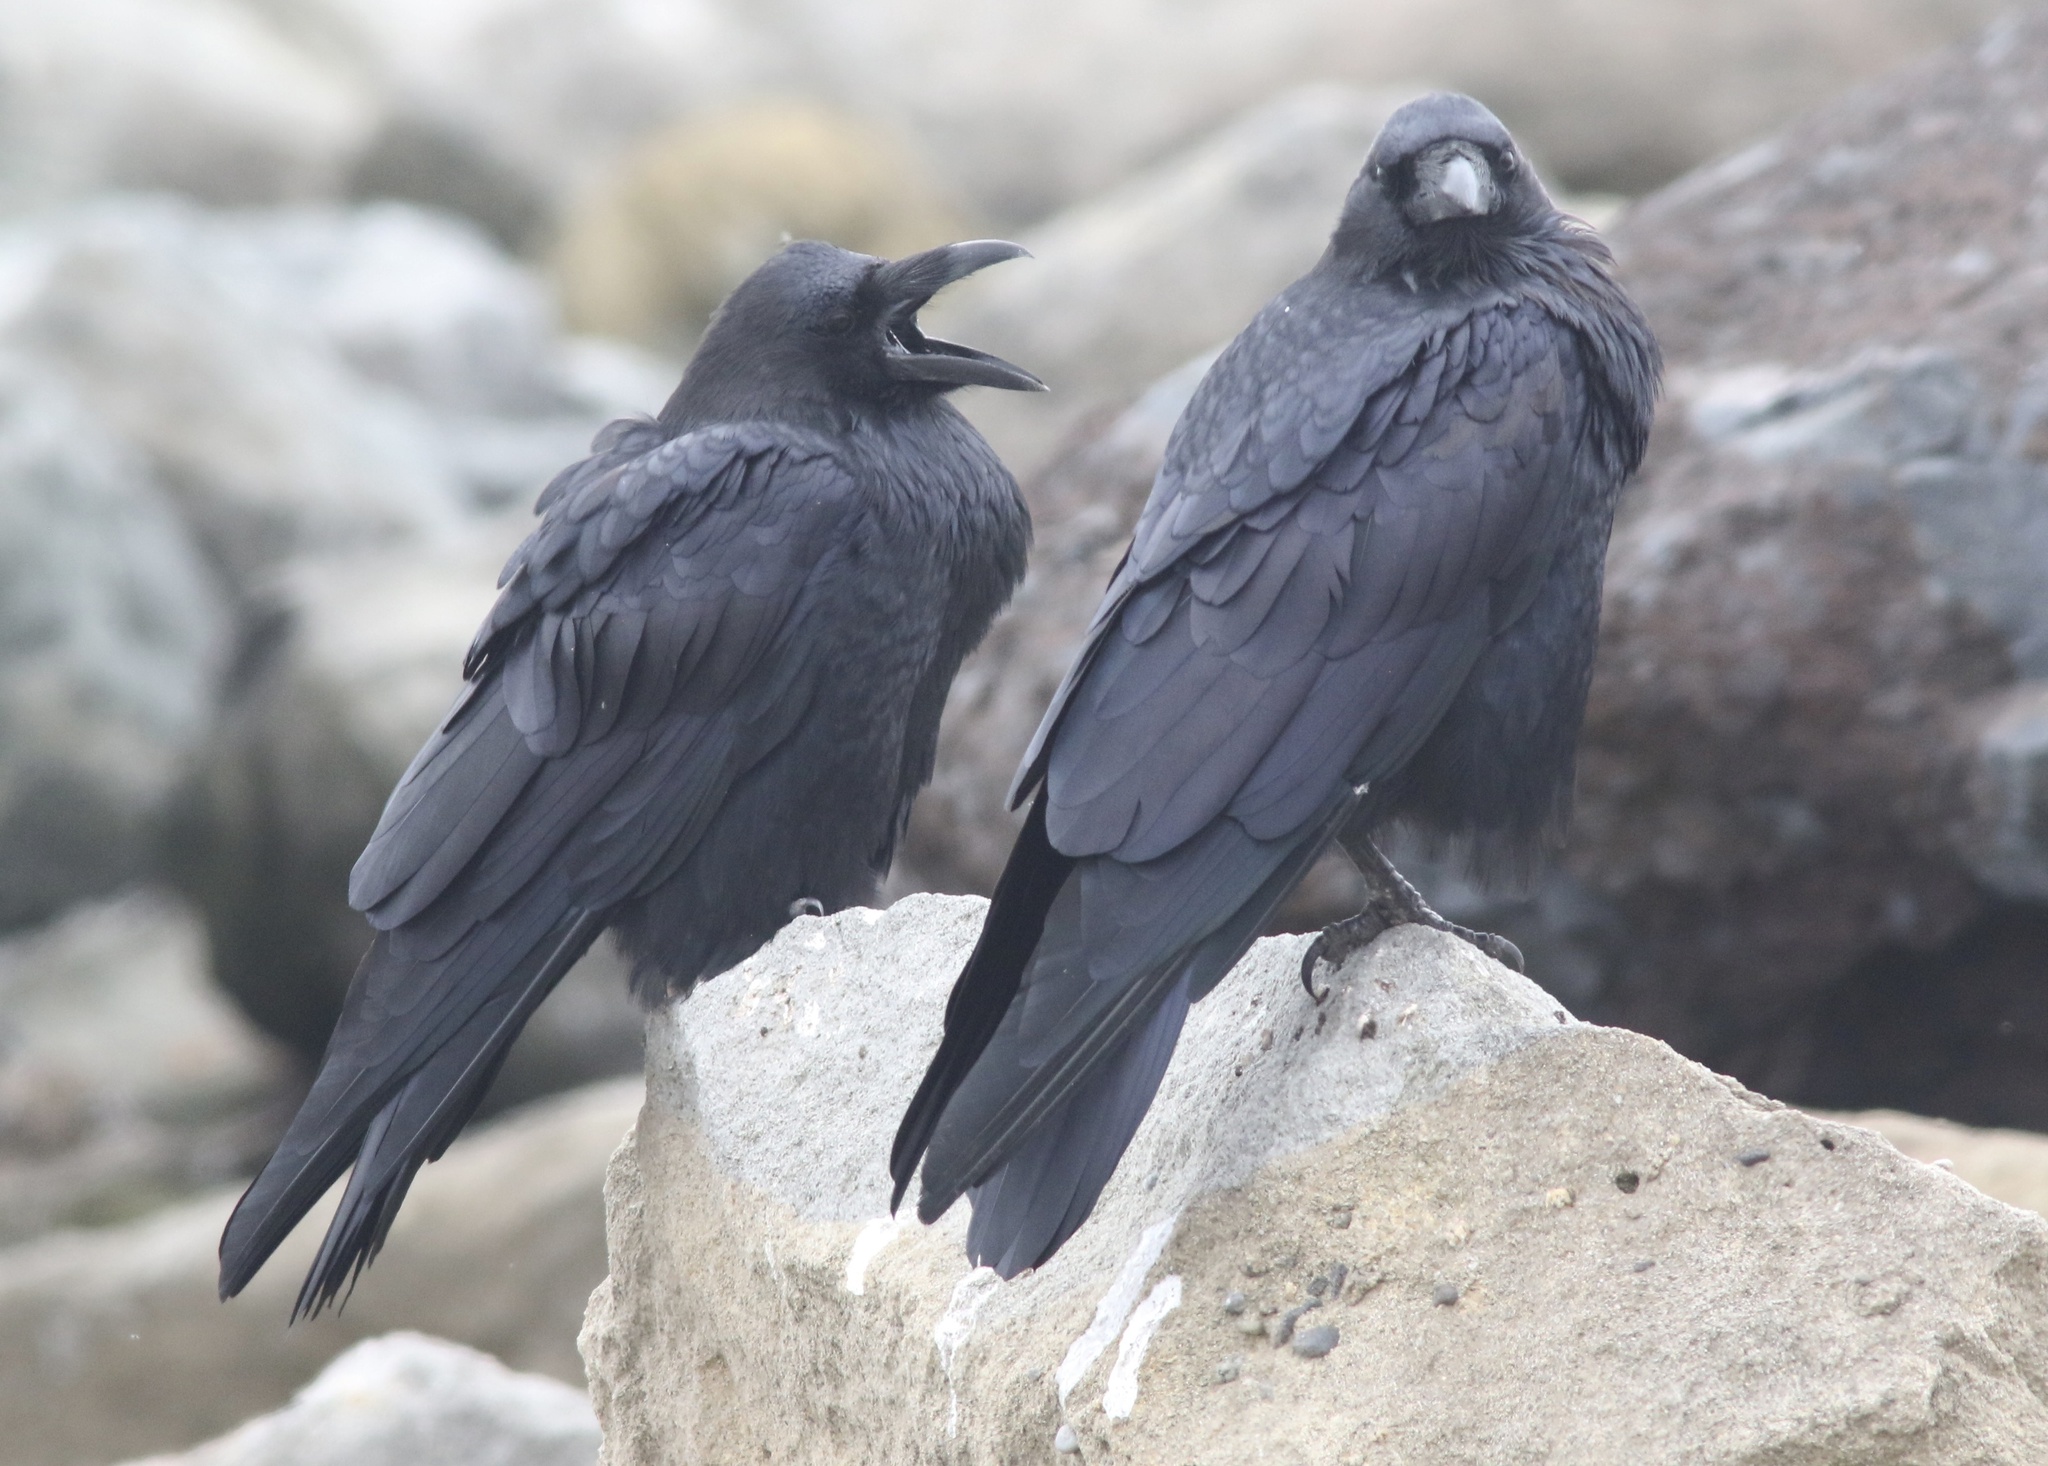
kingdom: Animalia
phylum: Chordata
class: Aves
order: Passeriformes
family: Corvidae
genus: Corvus
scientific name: Corvus corax
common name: Common raven
